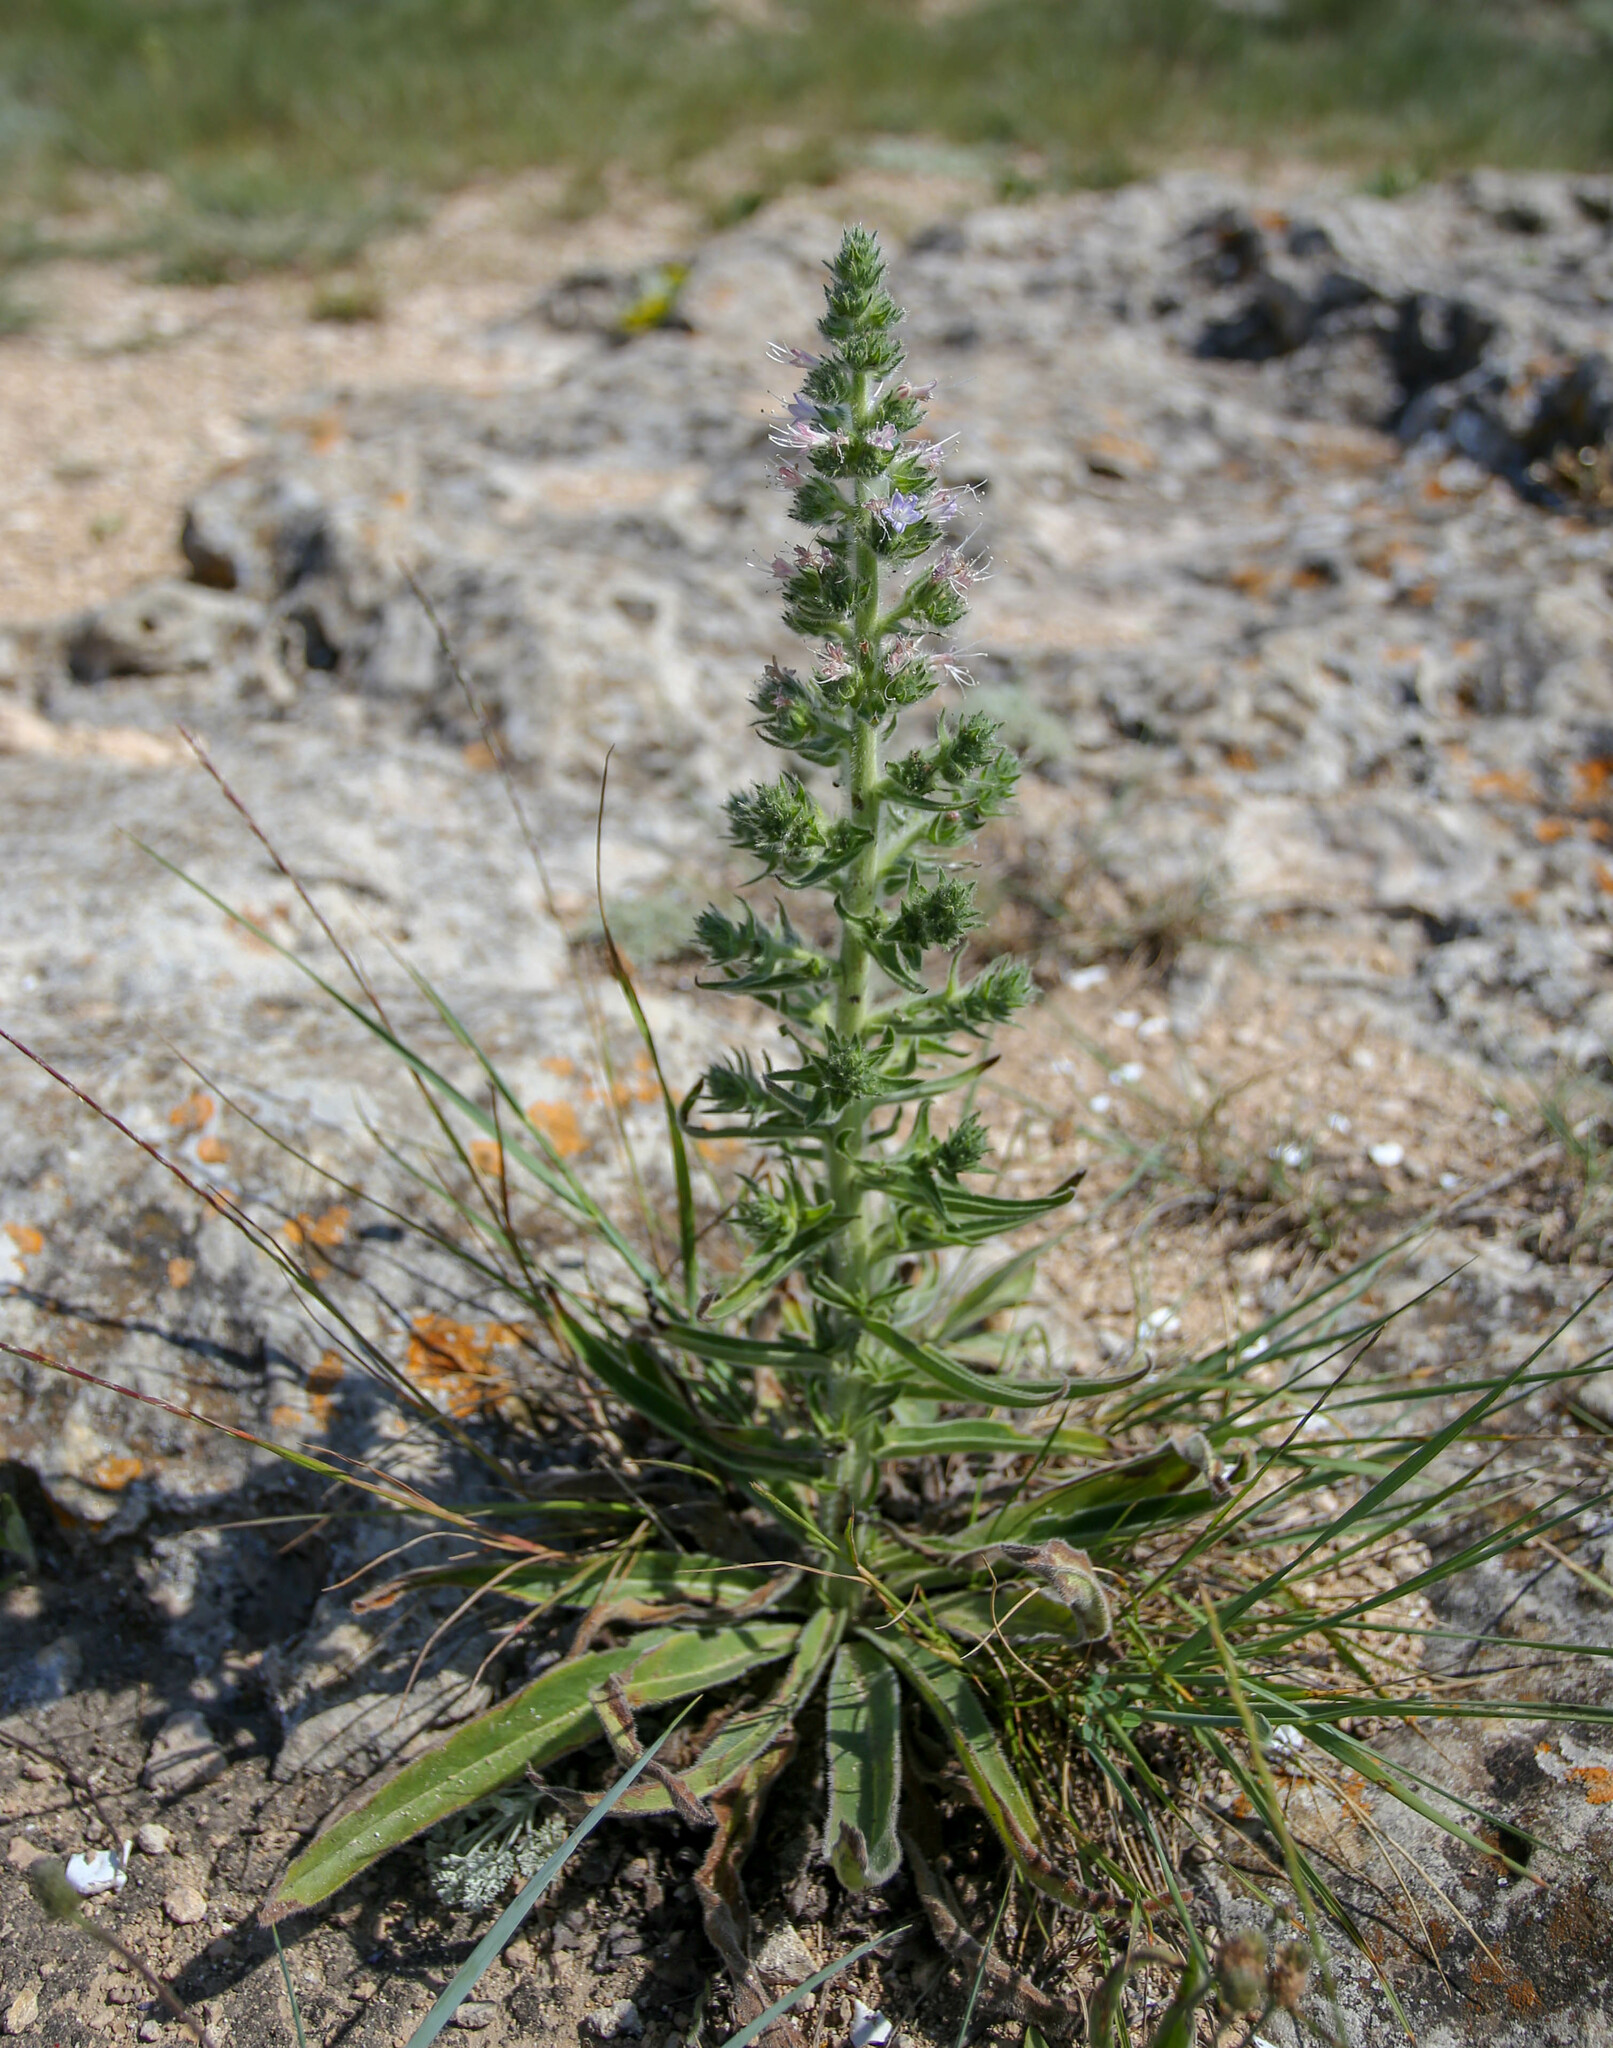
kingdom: Plantae
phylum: Tracheophyta
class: Magnoliopsida
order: Boraginales
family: Boraginaceae
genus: Echium
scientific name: Echium italicum
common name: Italian viper's bugloss
